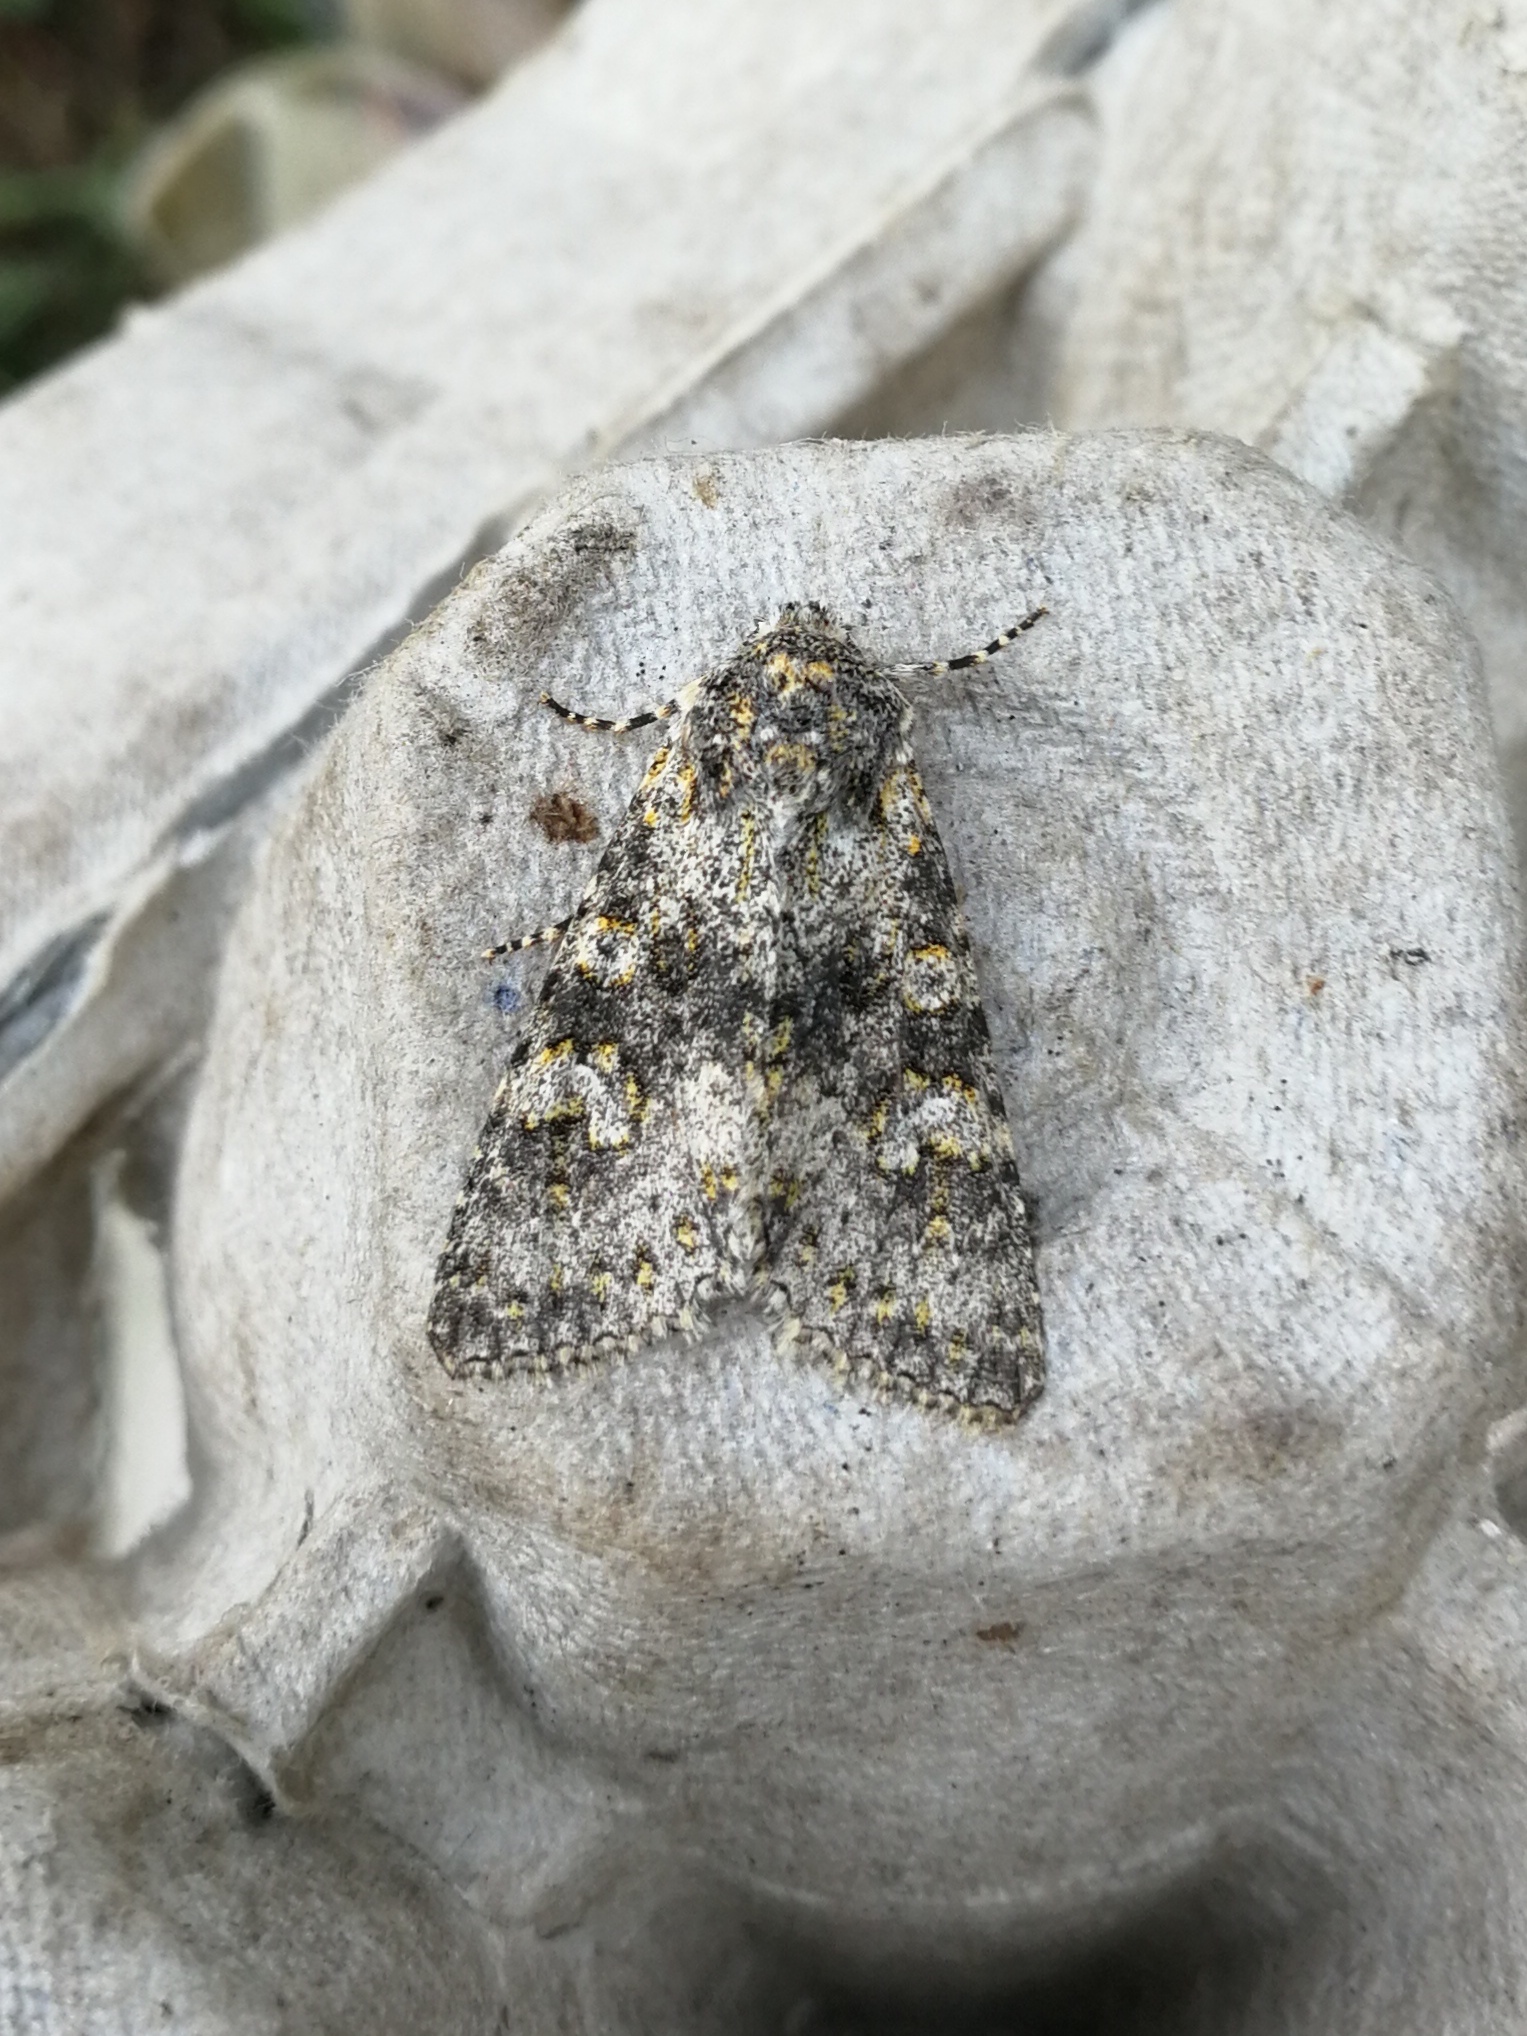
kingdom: Animalia
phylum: Arthropoda
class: Insecta
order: Lepidoptera
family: Noctuidae
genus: Polymixis
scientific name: Polymixis xanthomista
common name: Black-banded
